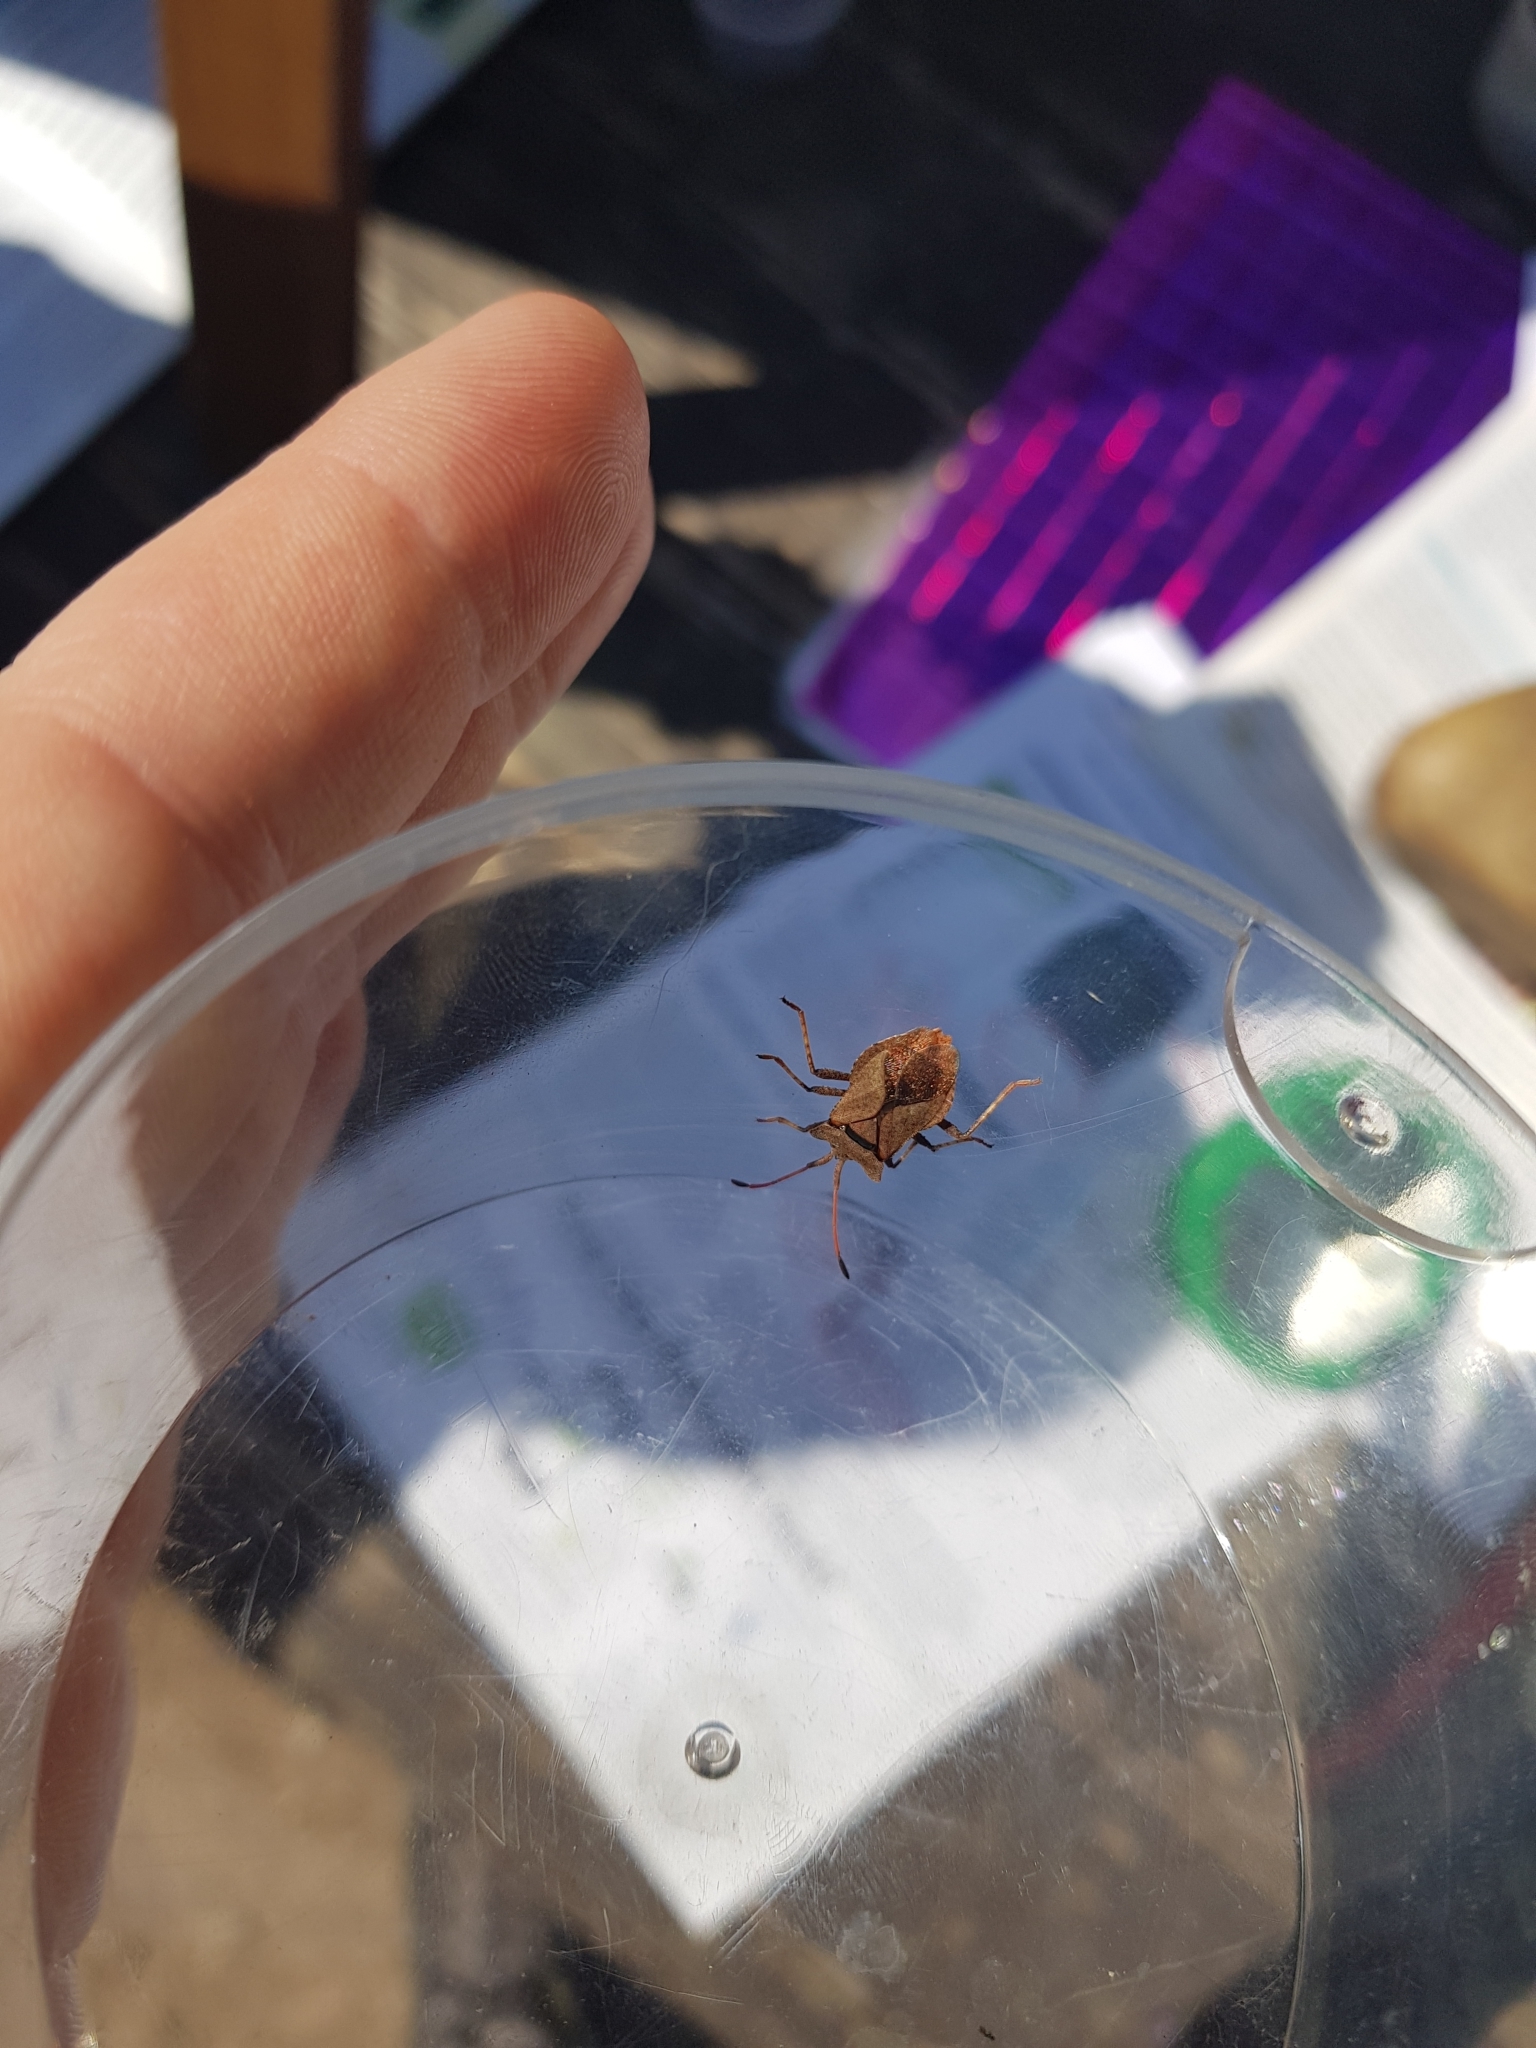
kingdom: Animalia
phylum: Arthropoda
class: Insecta
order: Hemiptera
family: Coreidae
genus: Coreus
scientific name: Coreus marginatus
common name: Dock bug
